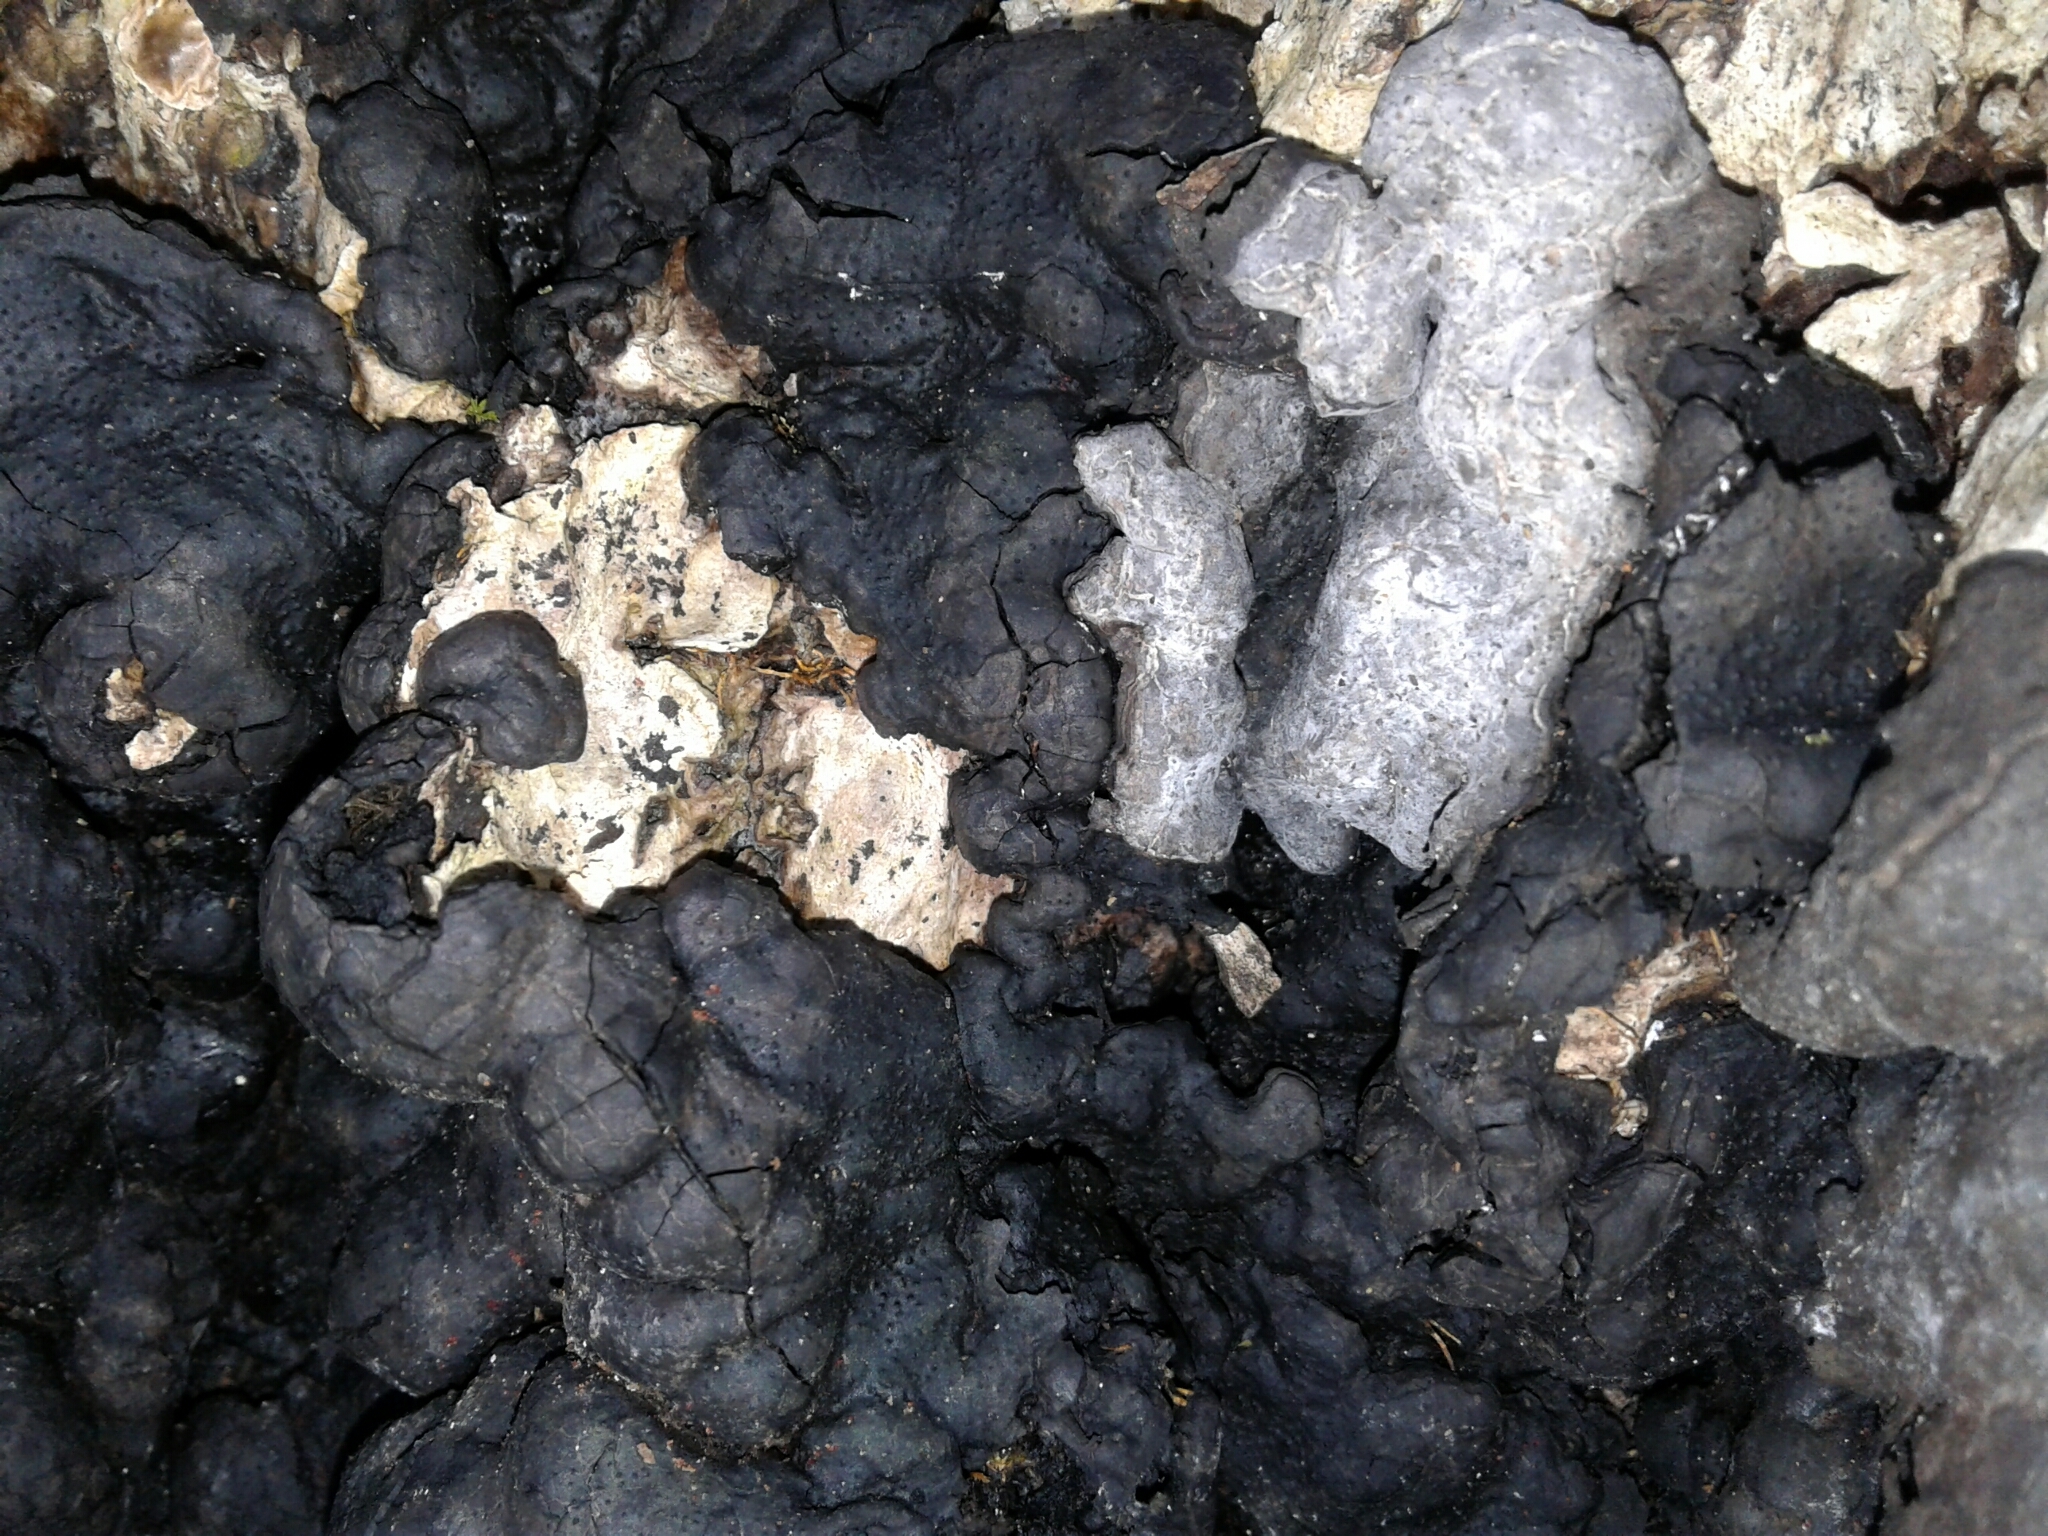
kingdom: Fungi
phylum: Ascomycota
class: Sordariomycetes
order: Xylariales
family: Xylariaceae
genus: Kretzschmaria
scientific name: Kretzschmaria deusta
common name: Brittle cinder
